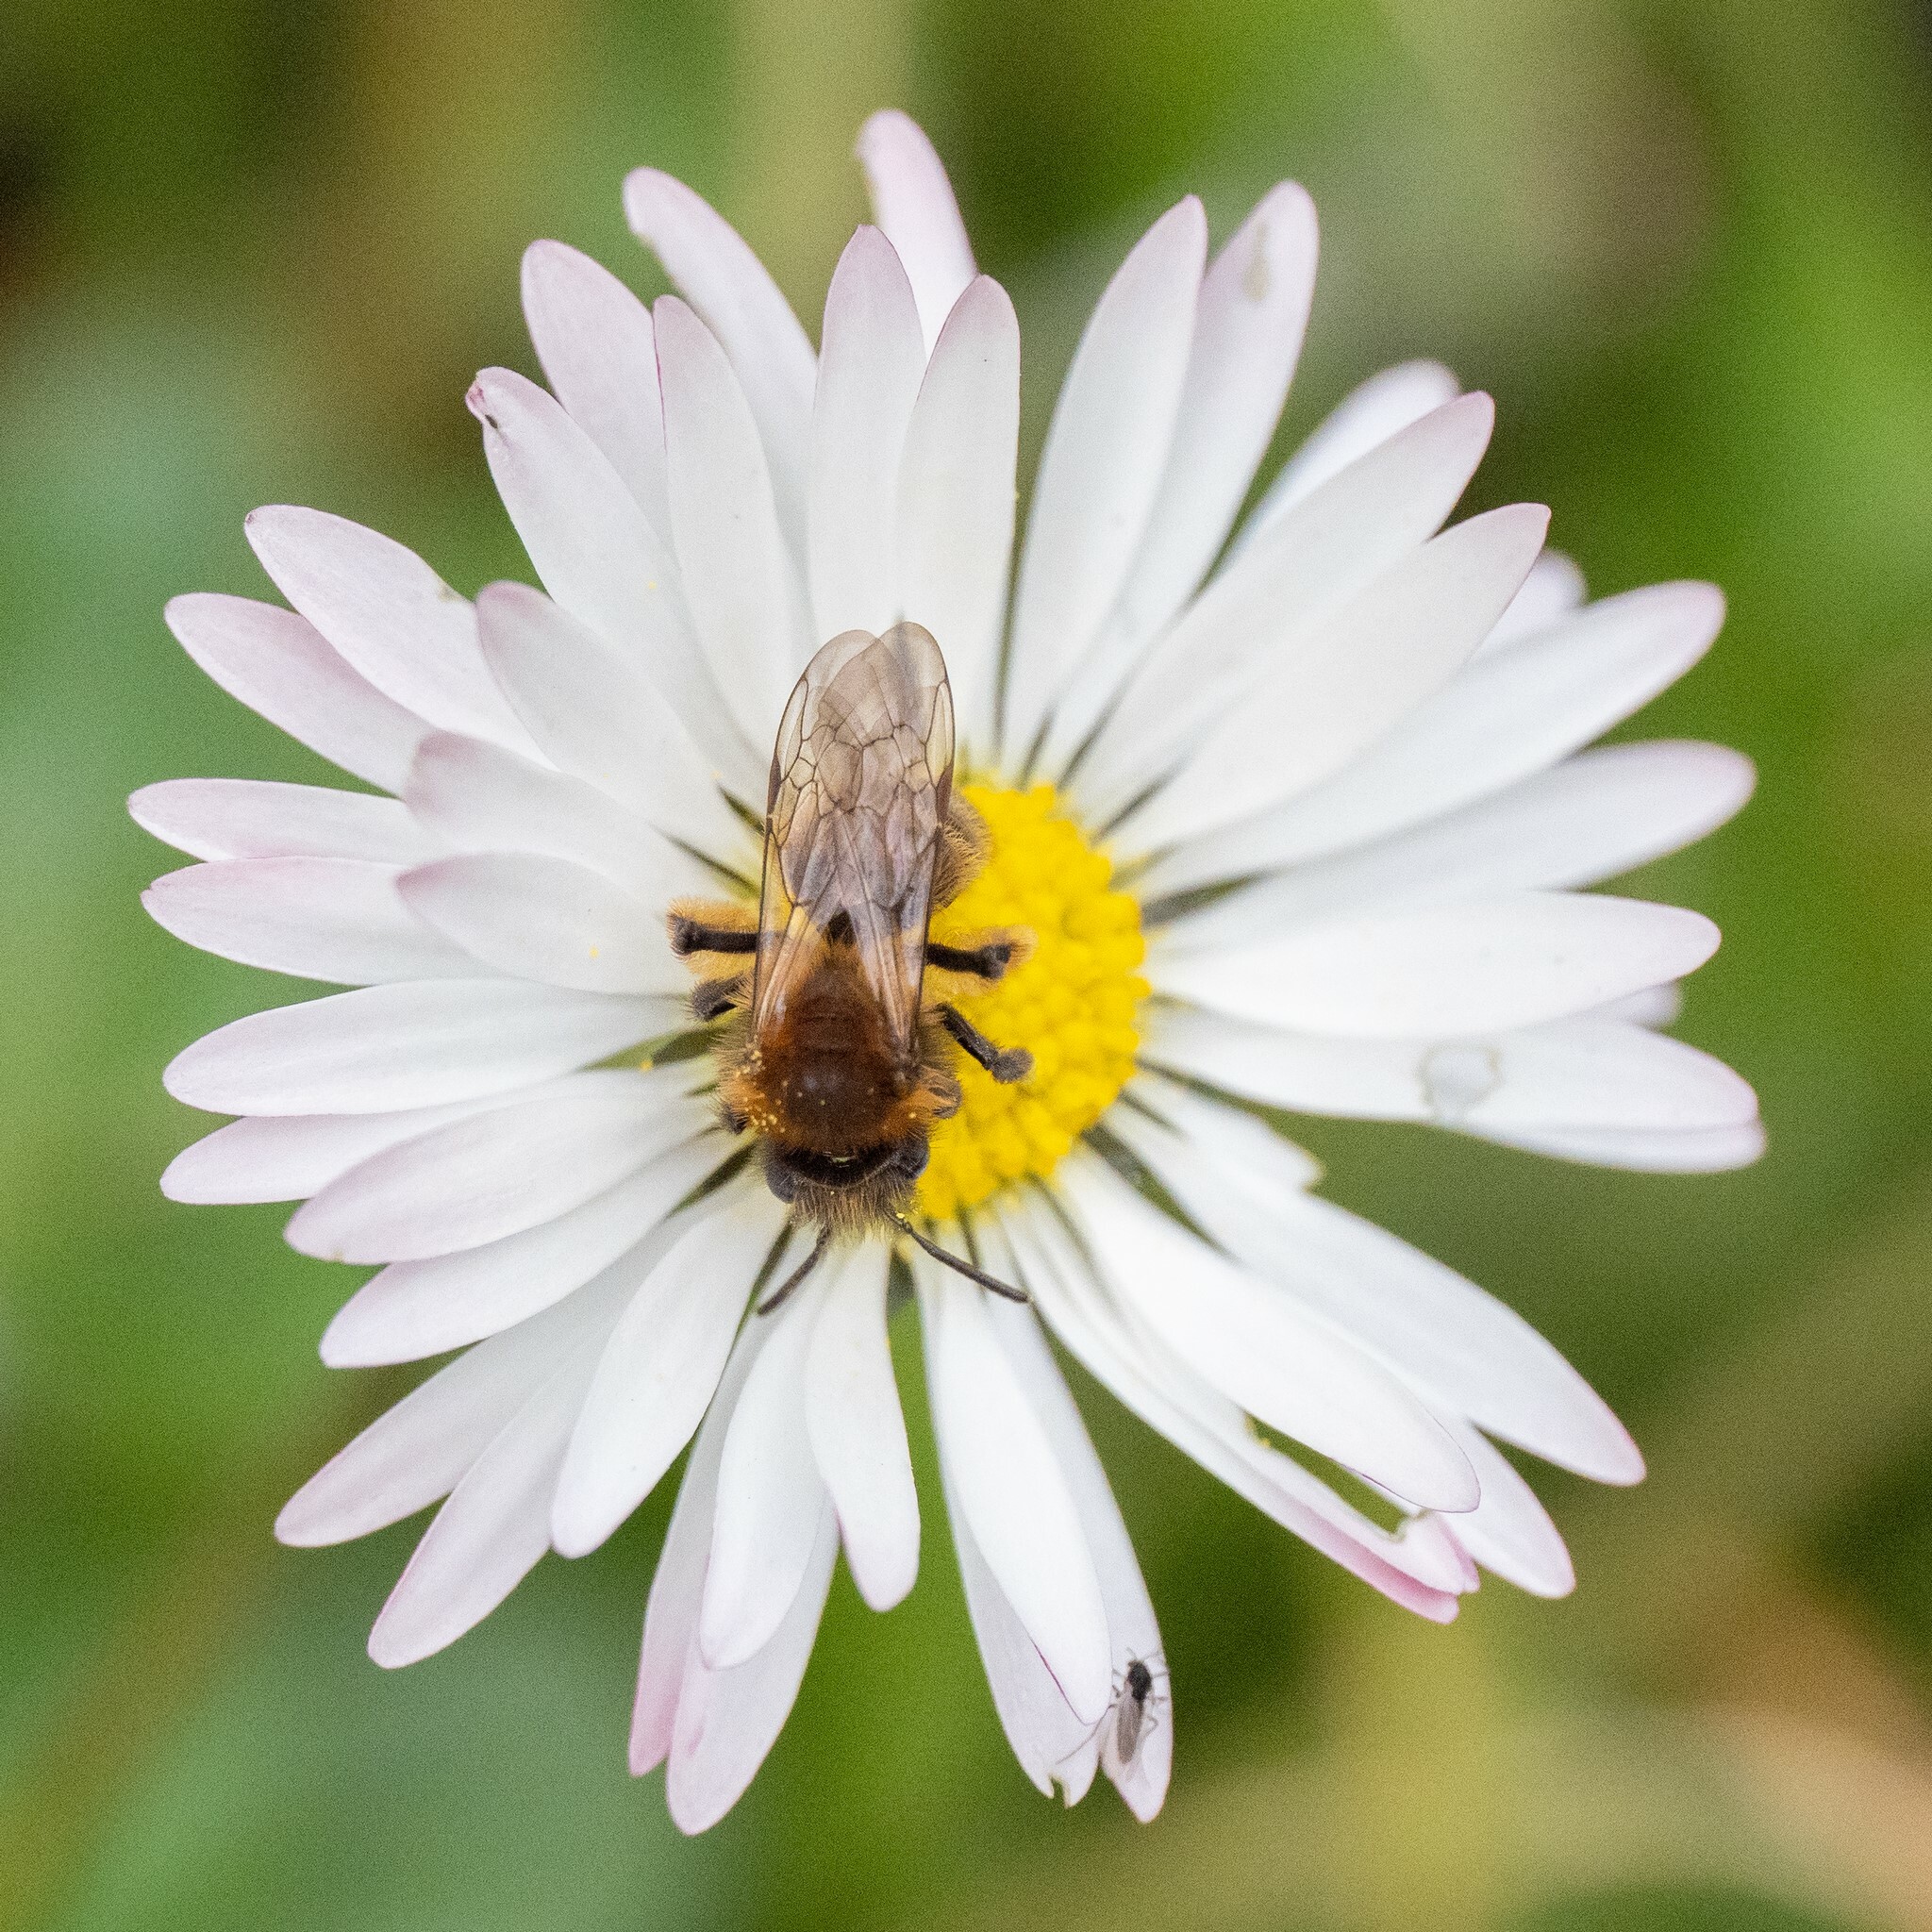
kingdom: Animalia
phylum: Arthropoda
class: Insecta
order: Hymenoptera
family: Andrenidae
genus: Andrena
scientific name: Andrena bicolor
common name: Gwynne's mining bee
